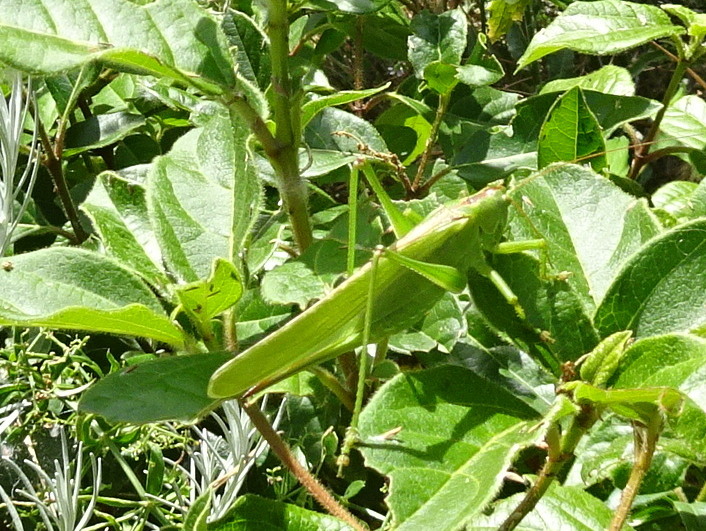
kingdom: Animalia
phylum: Arthropoda
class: Insecta
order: Orthoptera
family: Tettigoniidae
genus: Tettigonia
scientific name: Tettigonia viridissima
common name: Great green bush-cricket
